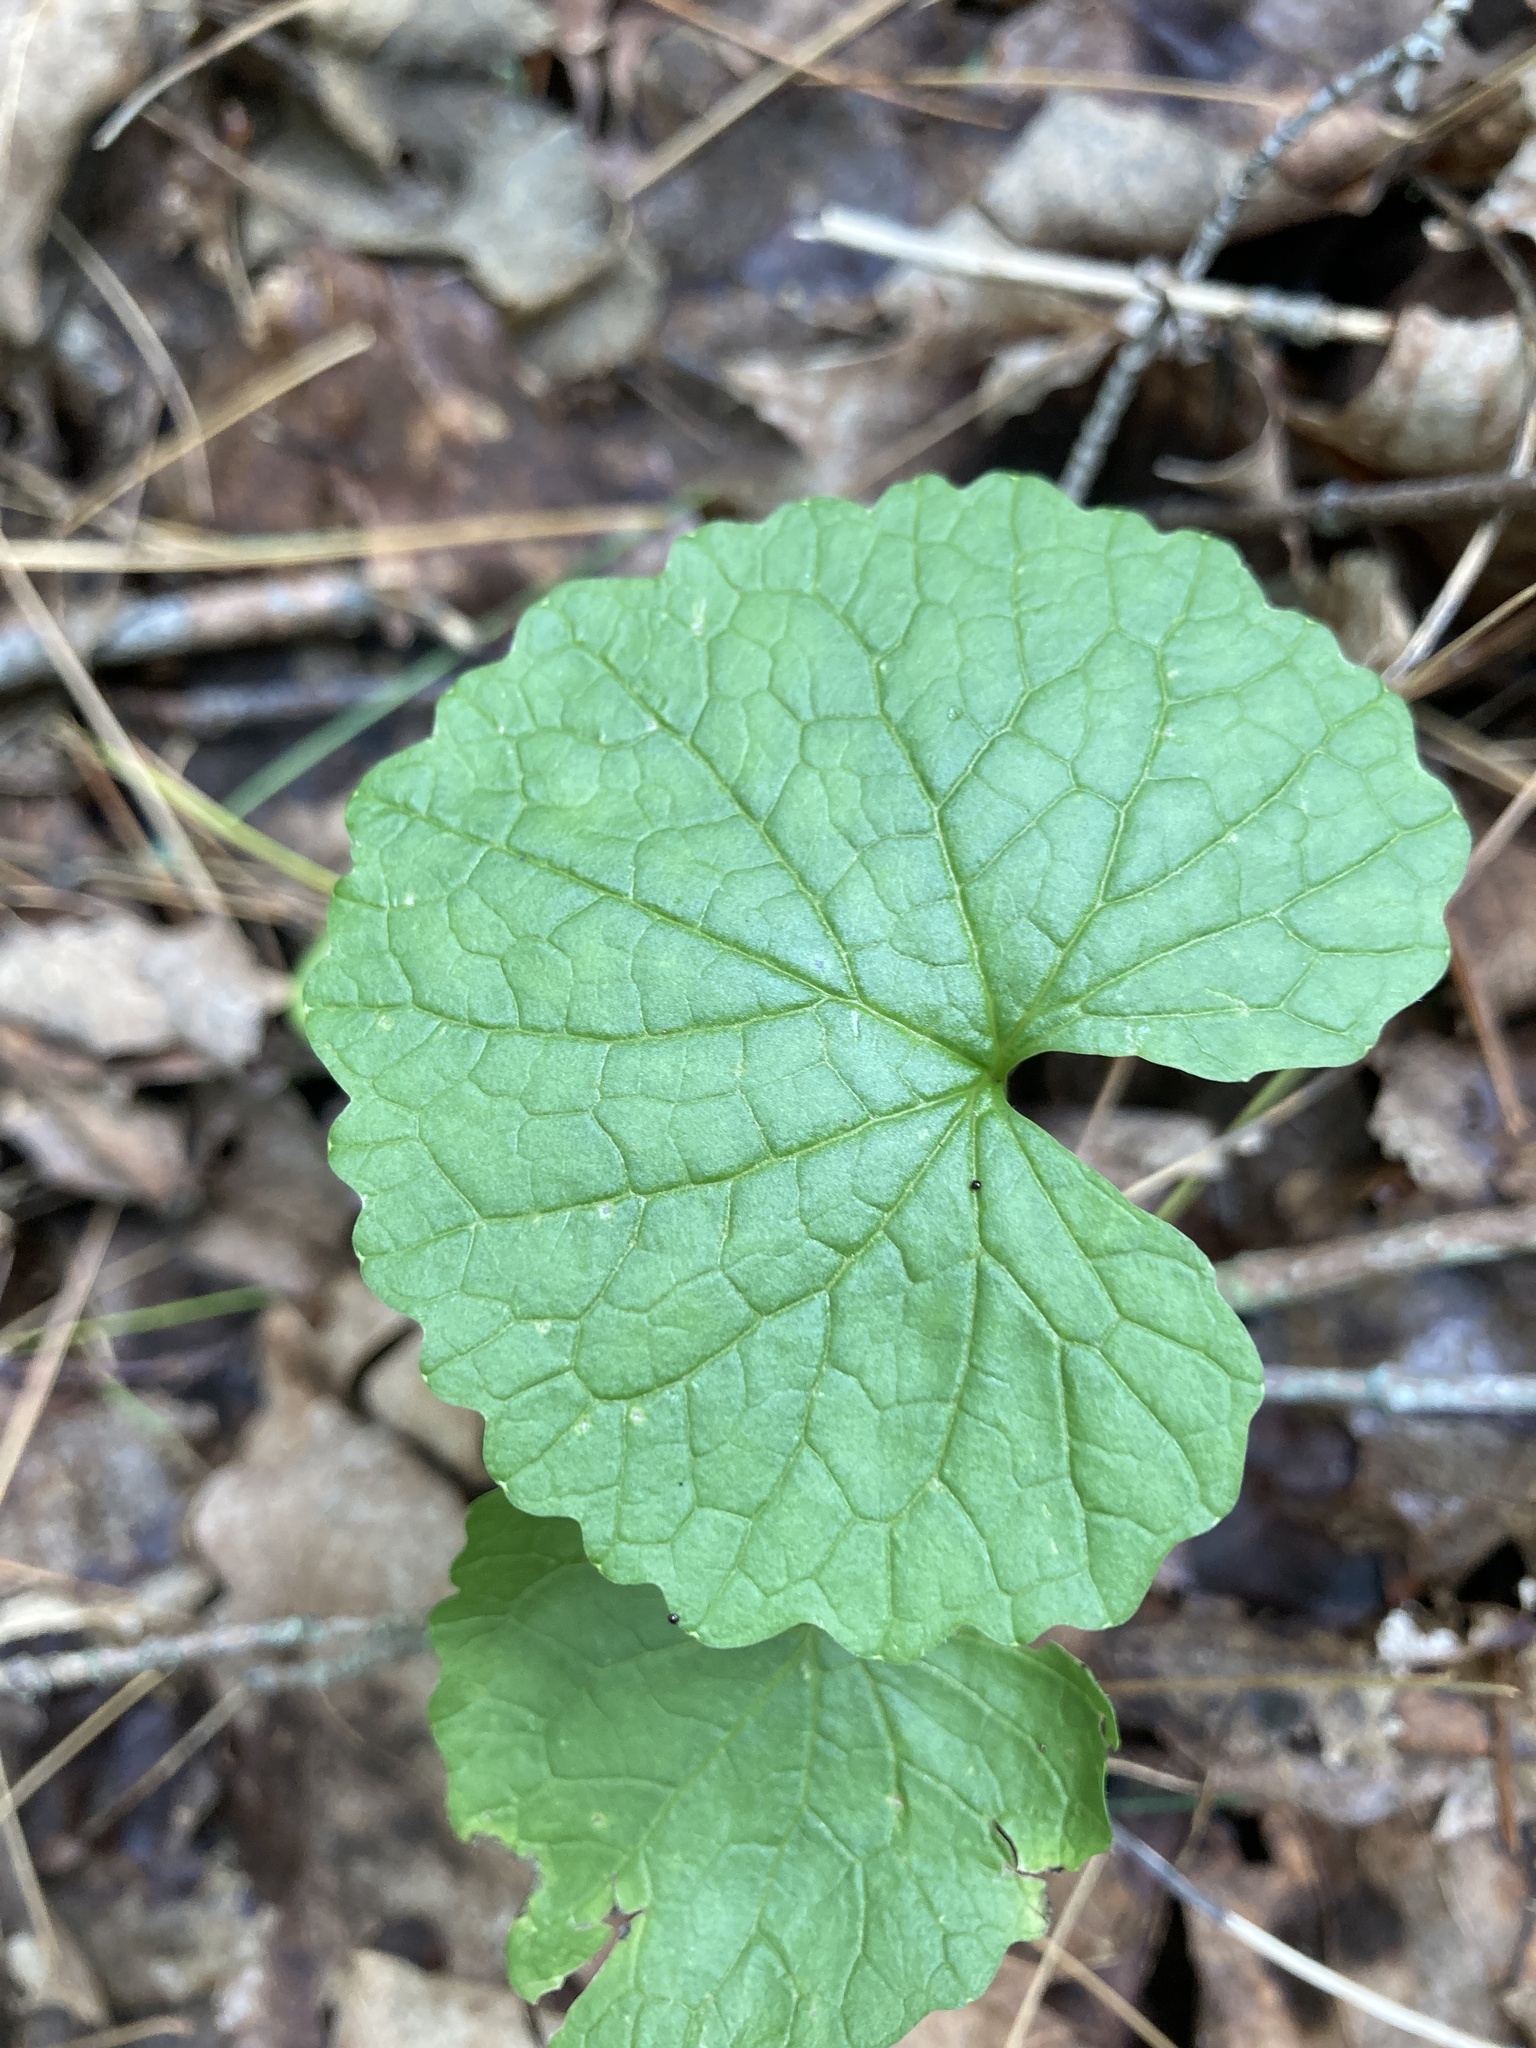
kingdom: Plantae
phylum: Tracheophyta
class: Magnoliopsida
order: Brassicales
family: Brassicaceae
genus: Alliaria
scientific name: Alliaria petiolata
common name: Garlic mustard
